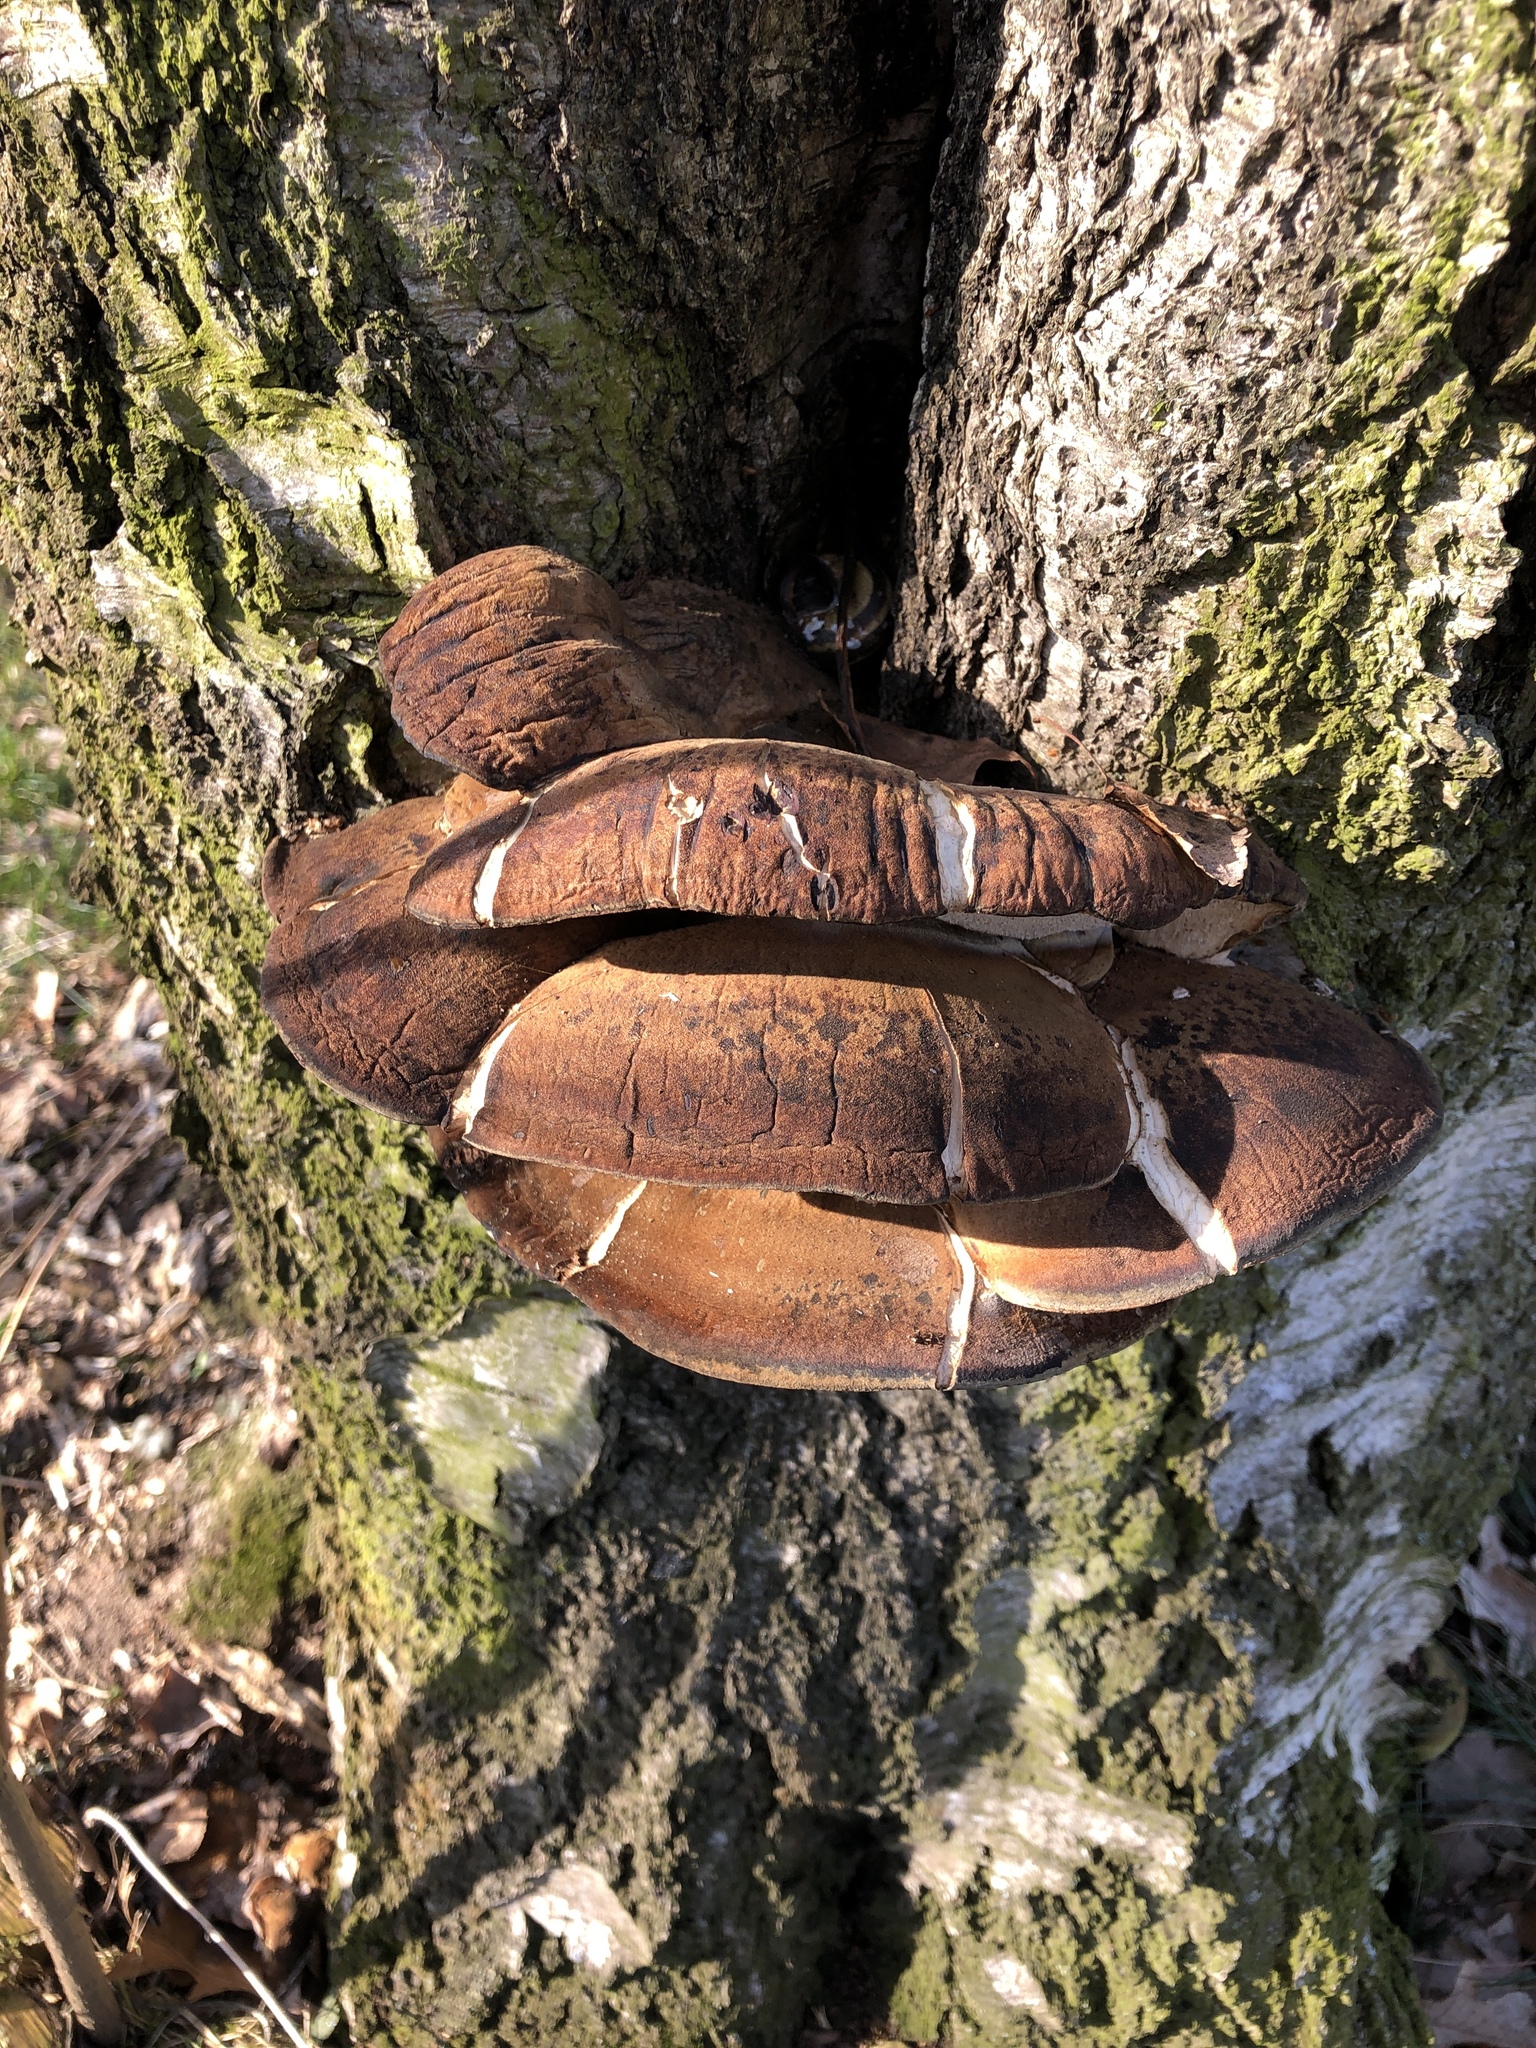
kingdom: Fungi
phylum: Basidiomycota
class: Agaricomycetes
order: Polyporales
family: Ischnodermataceae
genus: Ischnoderma
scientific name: Ischnoderma resinosum
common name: Resinous polypore
